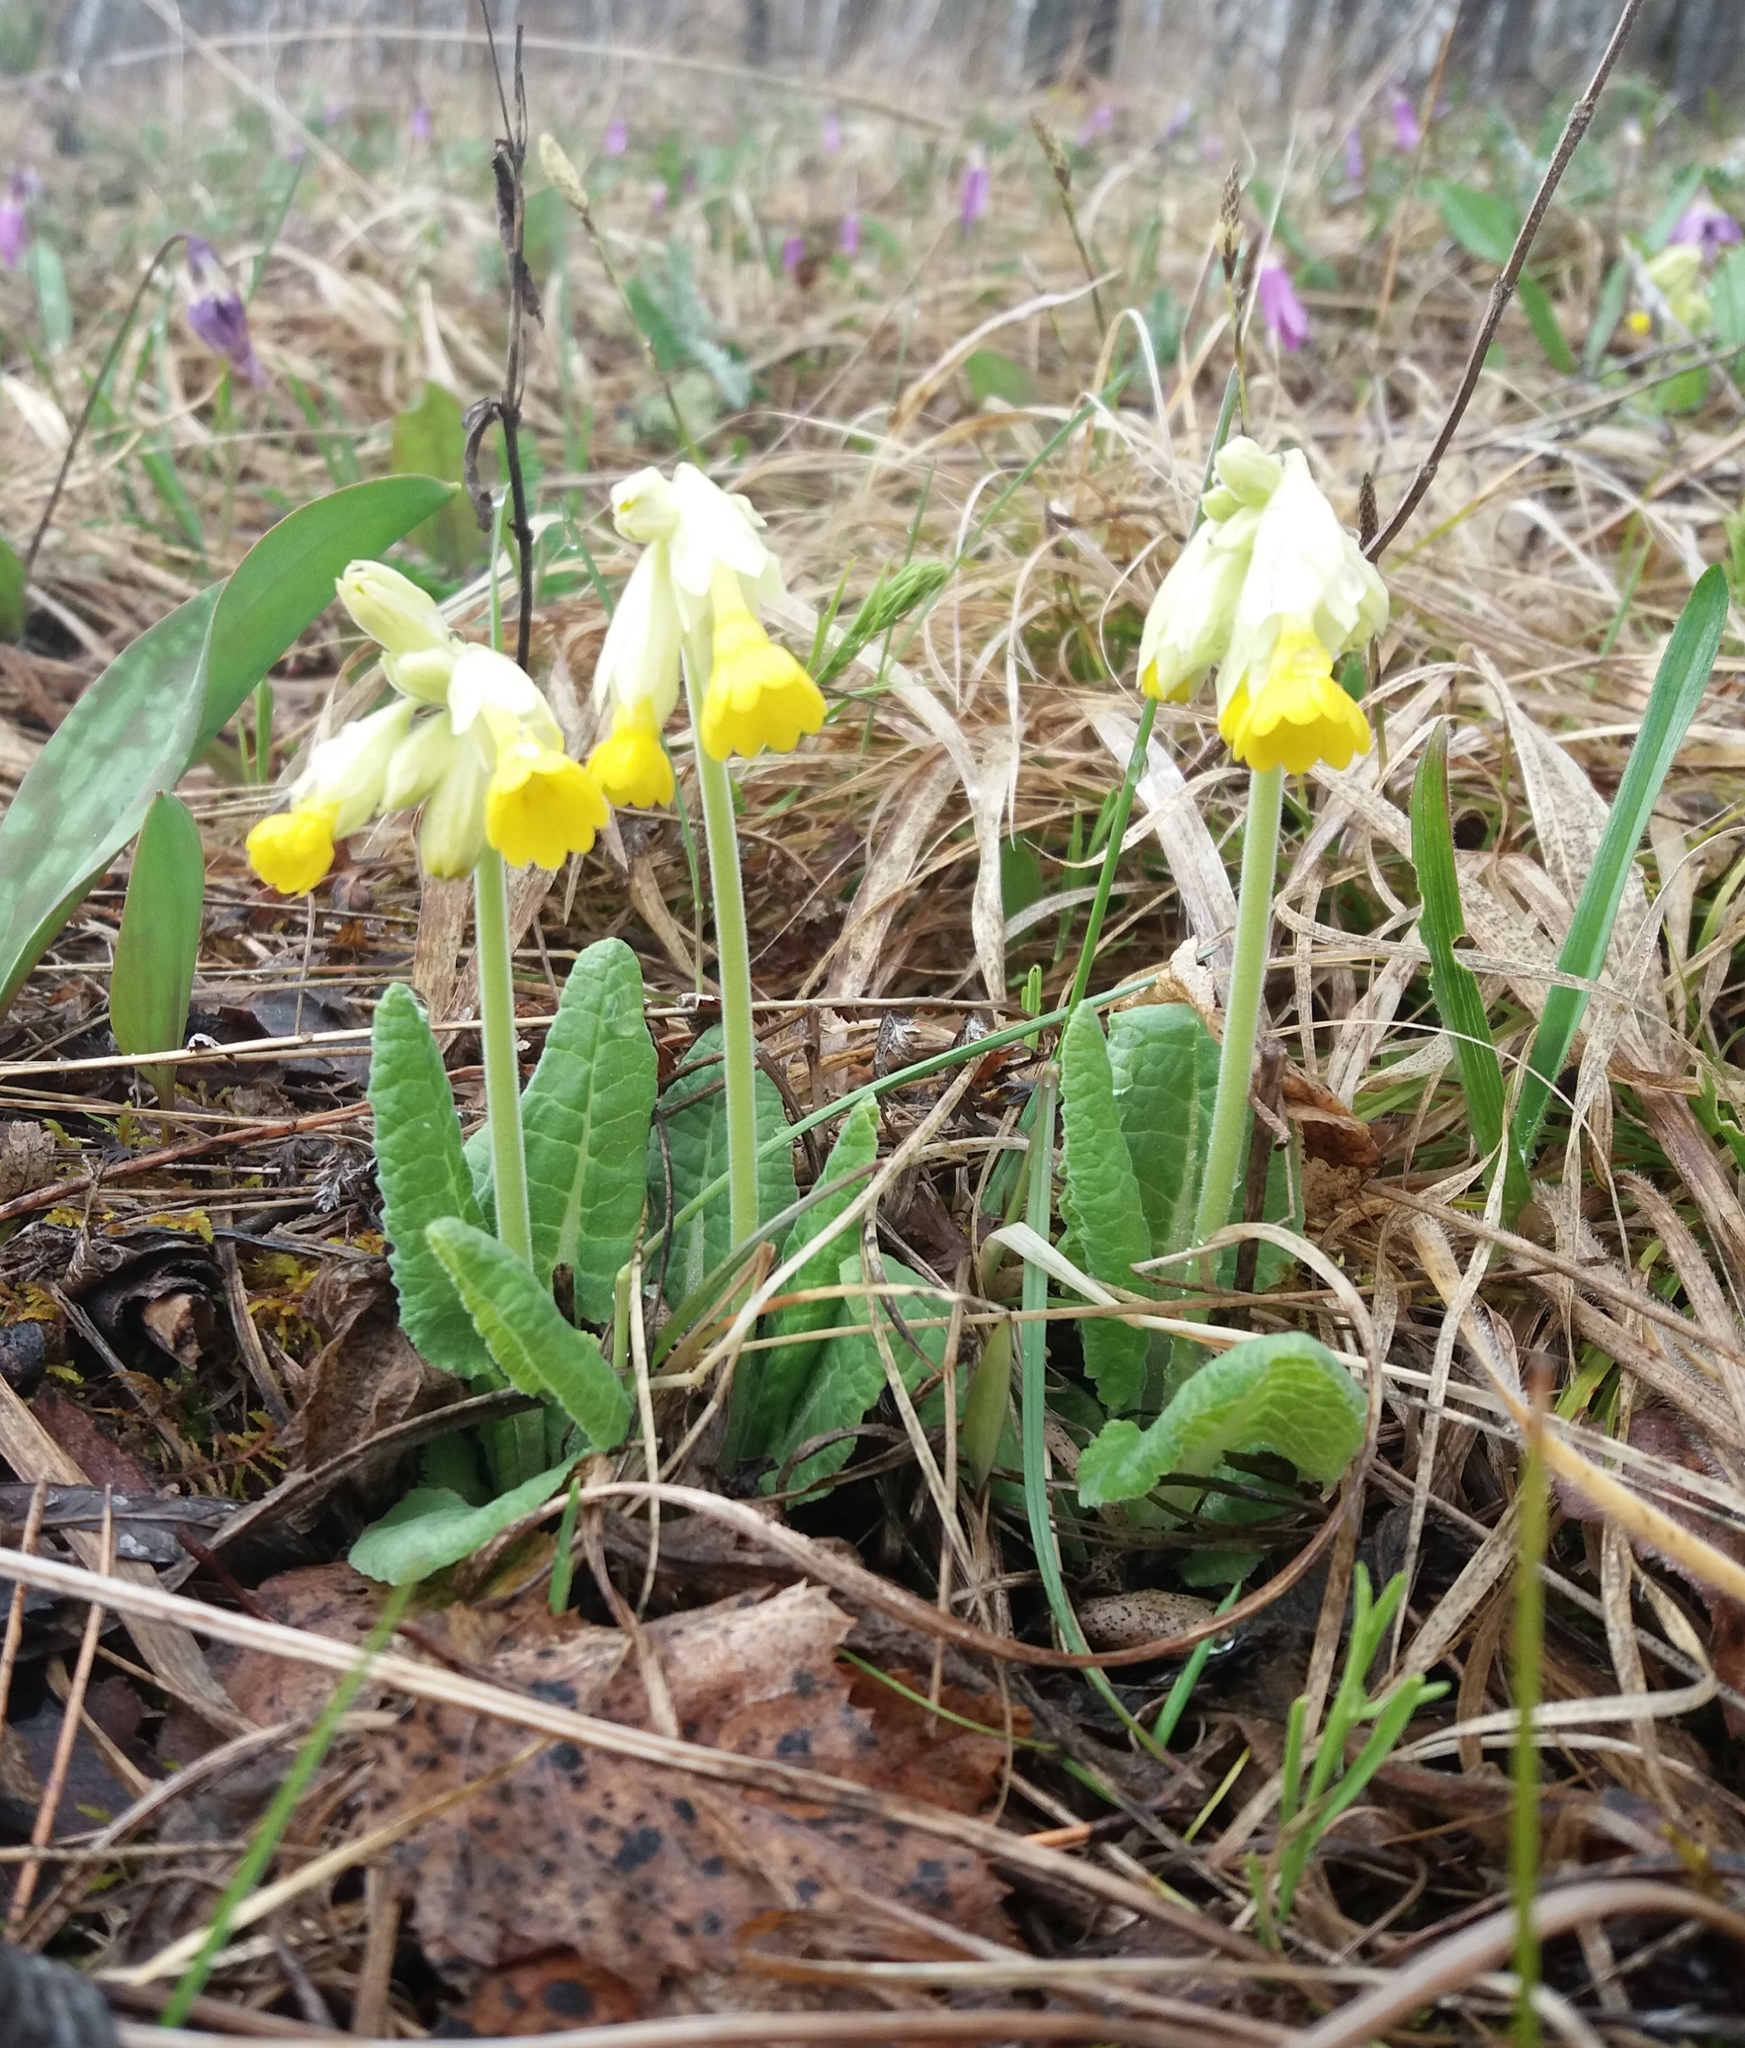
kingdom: Plantae
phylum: Tracheophyta
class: Magnoliopsida
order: Ericales
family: Primulaceae
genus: Primula
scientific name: Primula veris
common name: Cowslip
